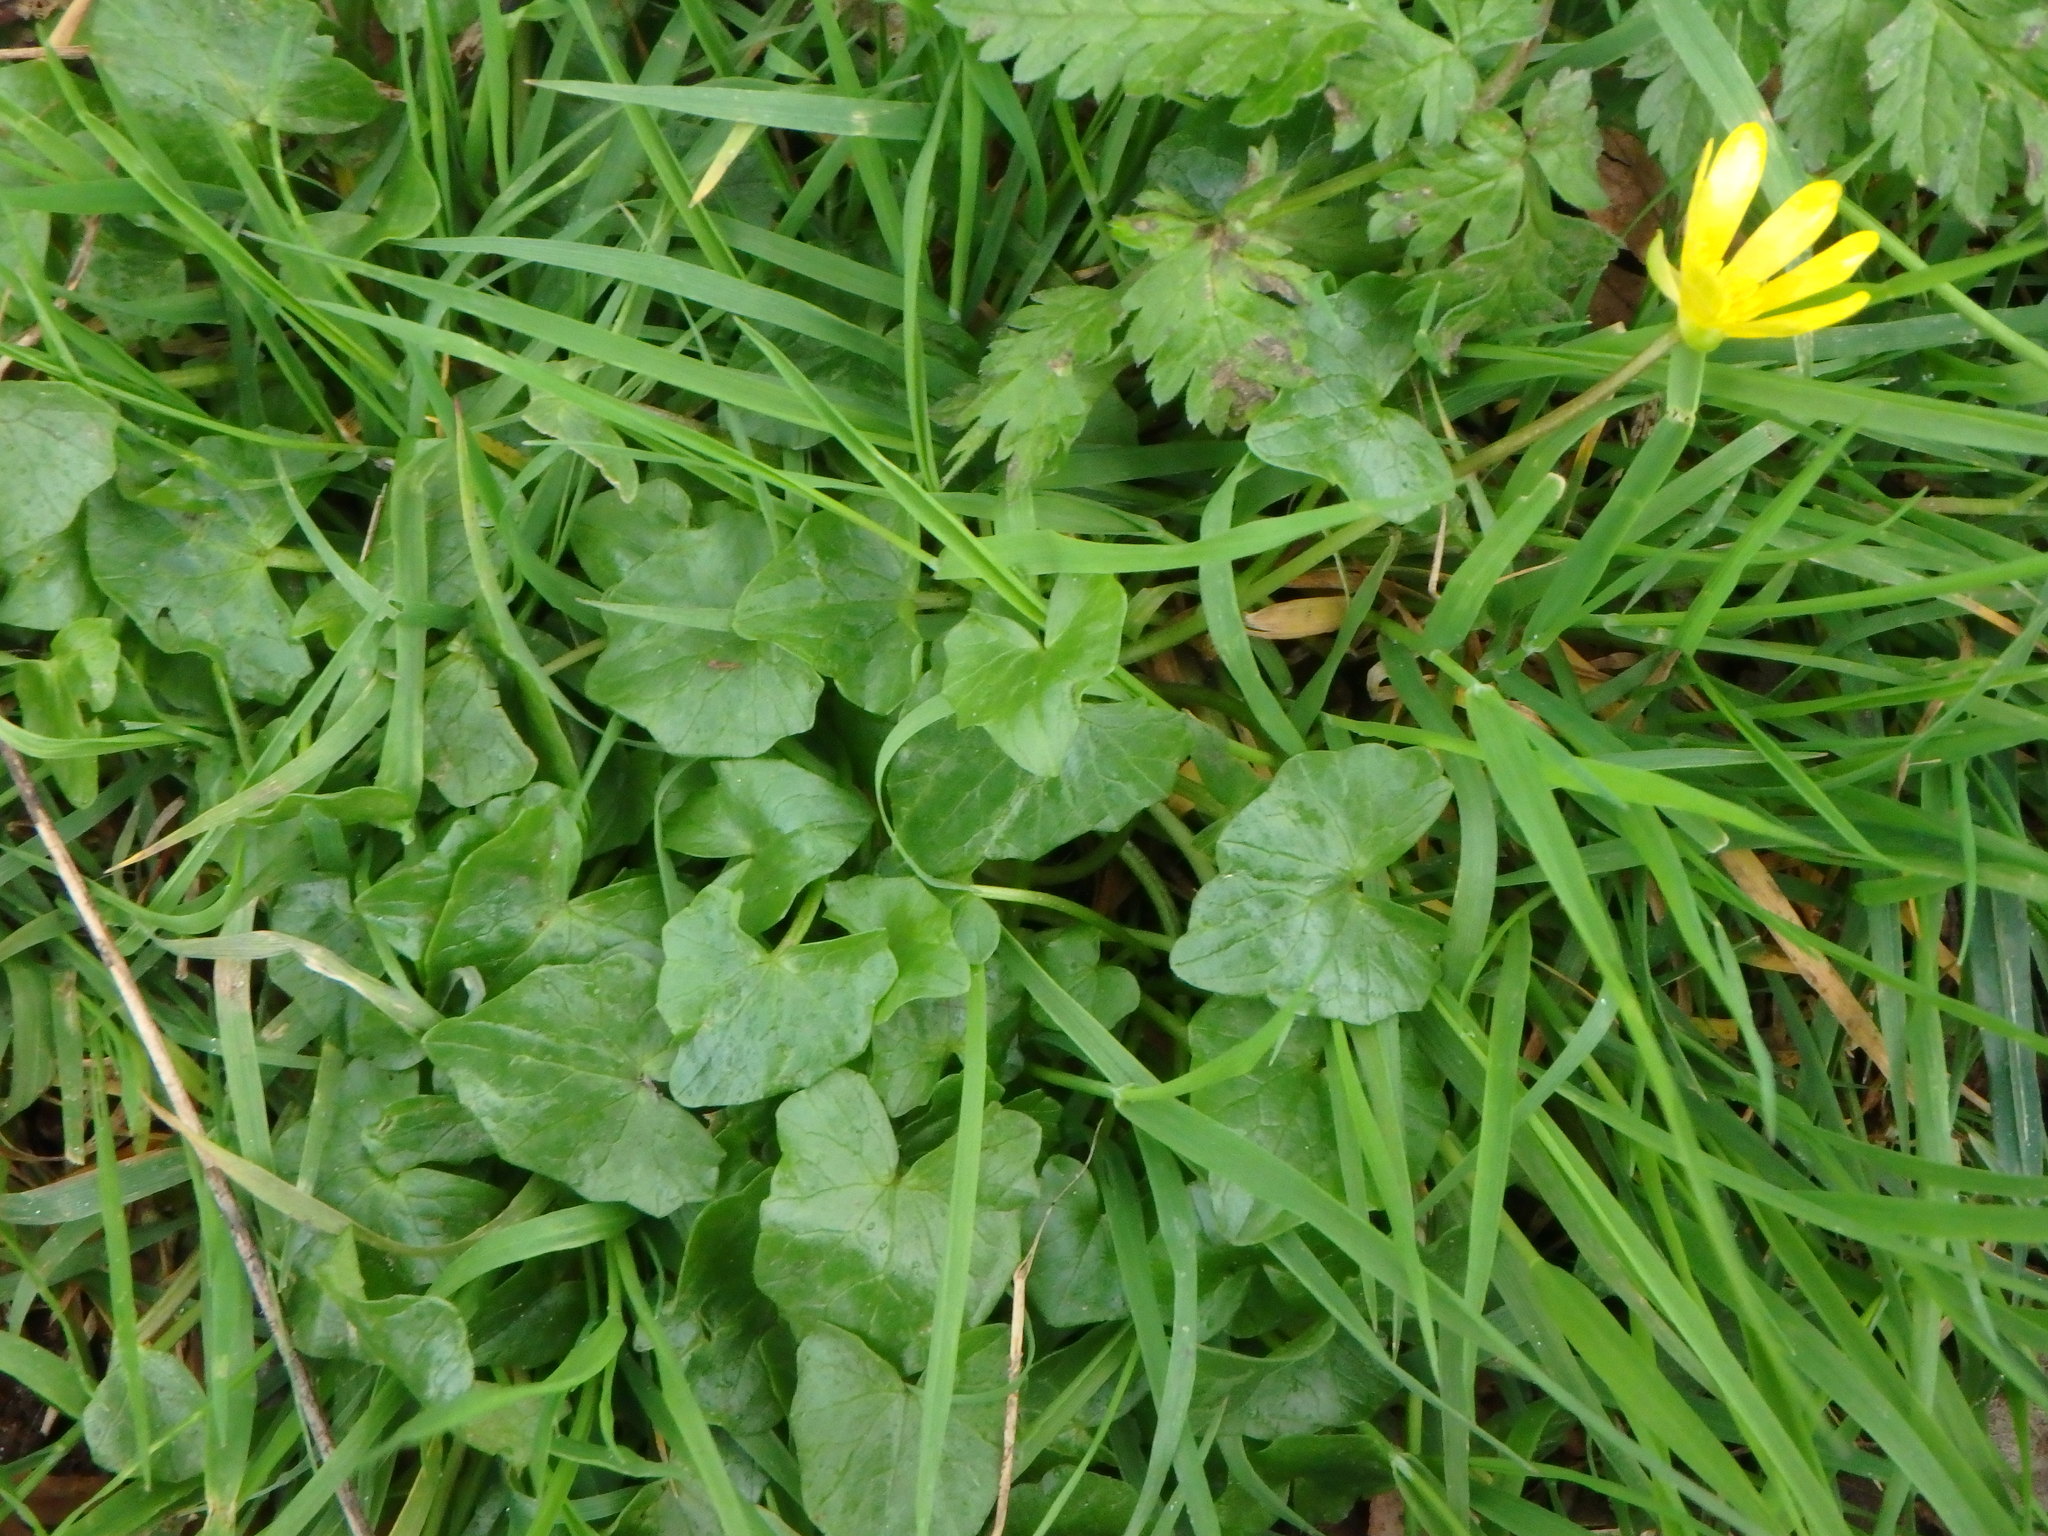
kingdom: Plantae
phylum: Tracheophyta
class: Magnoliopsida
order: Ranunculales
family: Ranunculaceae
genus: Ficaria
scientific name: Ficaria verna
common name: Lesser celandine
